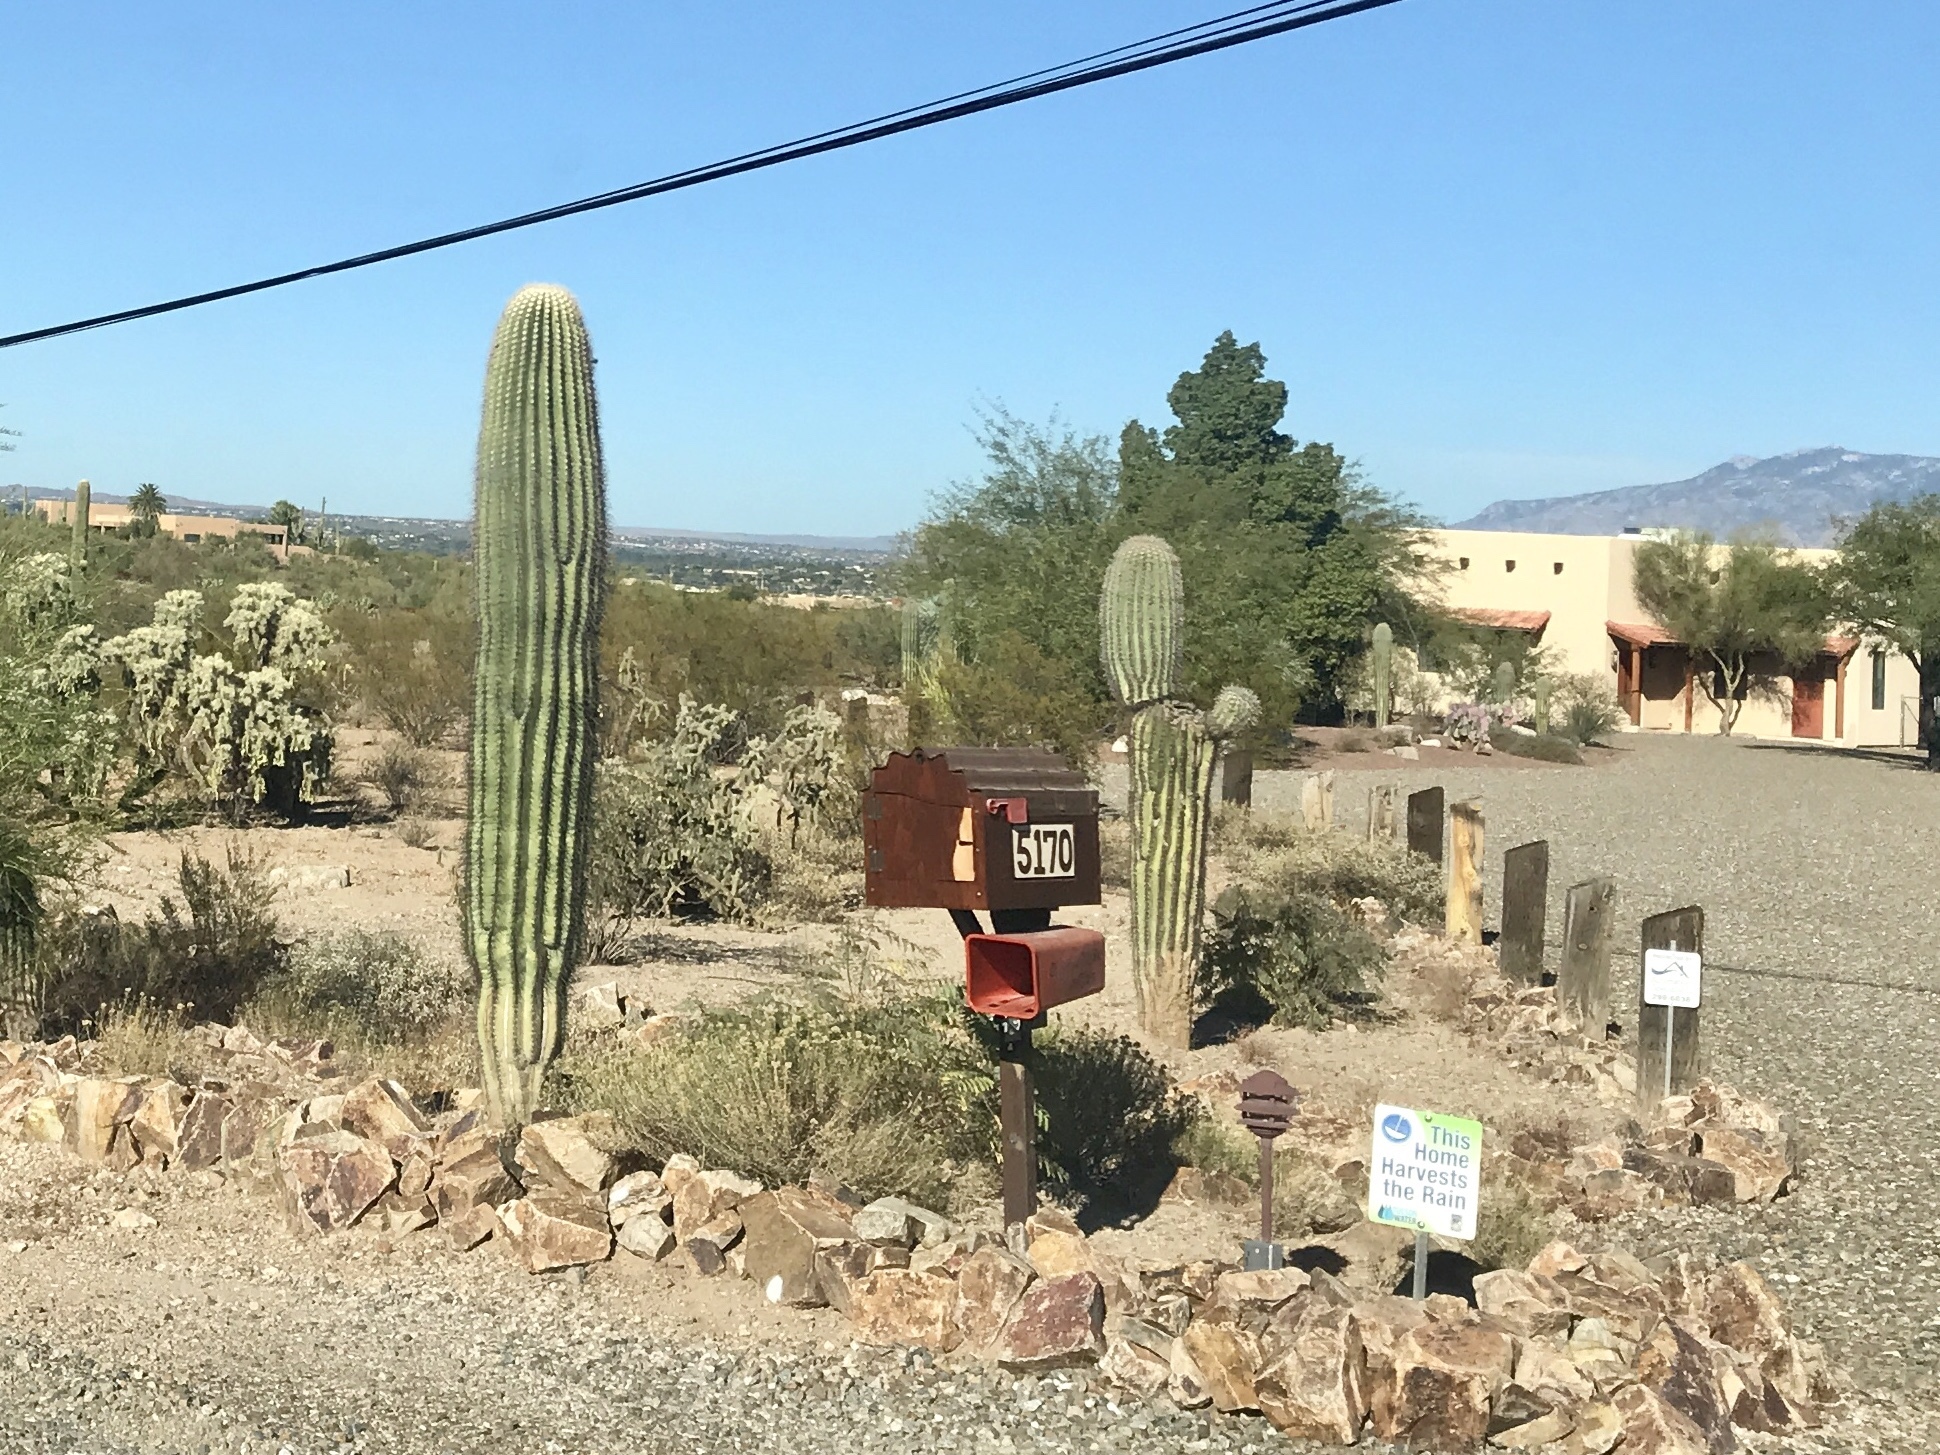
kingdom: Plantae
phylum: Tracheophyta
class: Magnoliopsida
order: Caryophyllales
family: Cactaceae
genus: Carnegiea
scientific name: Carnegiea gigantea
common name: Saguaro
